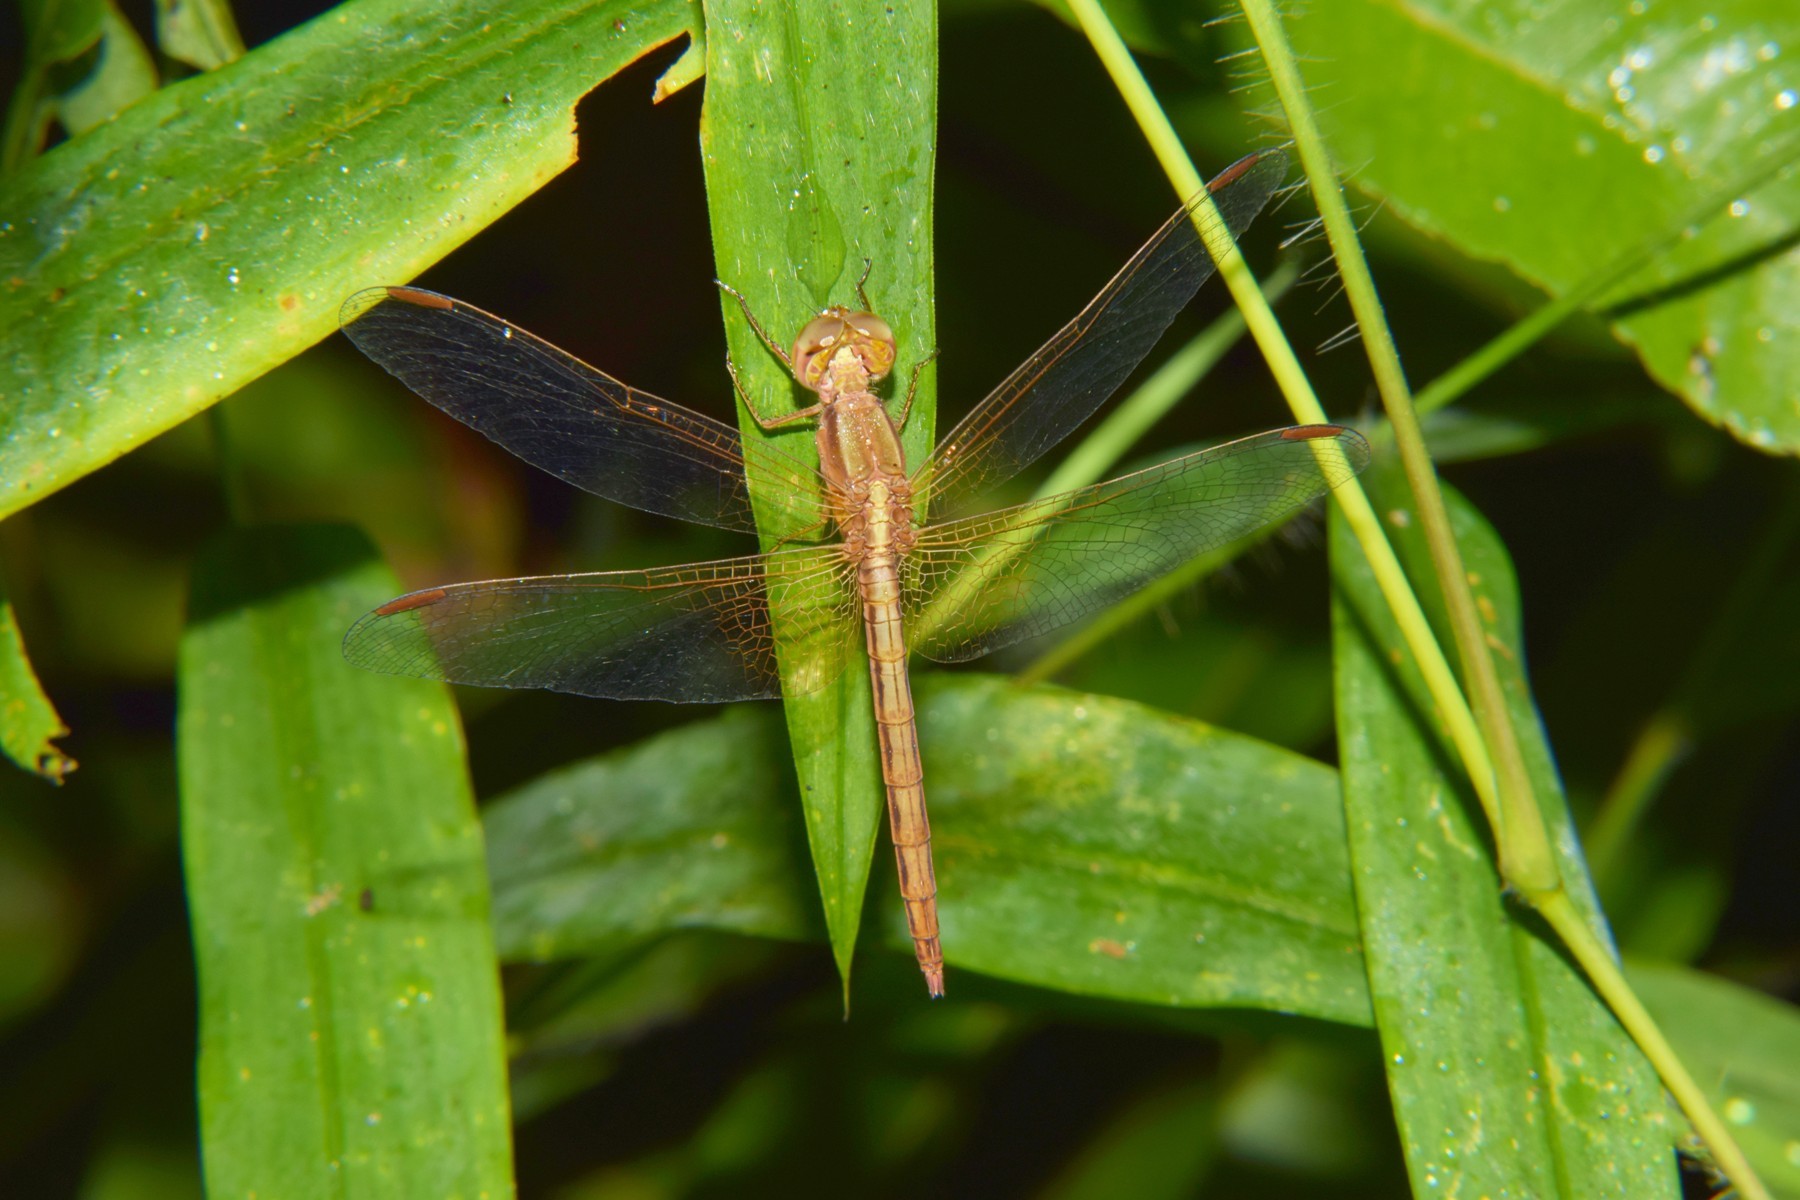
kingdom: Animalia
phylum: Arthropoda
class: Insecta
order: Odonata
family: Libellulidae
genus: Neurothemis
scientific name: Neurothemis intermedia
